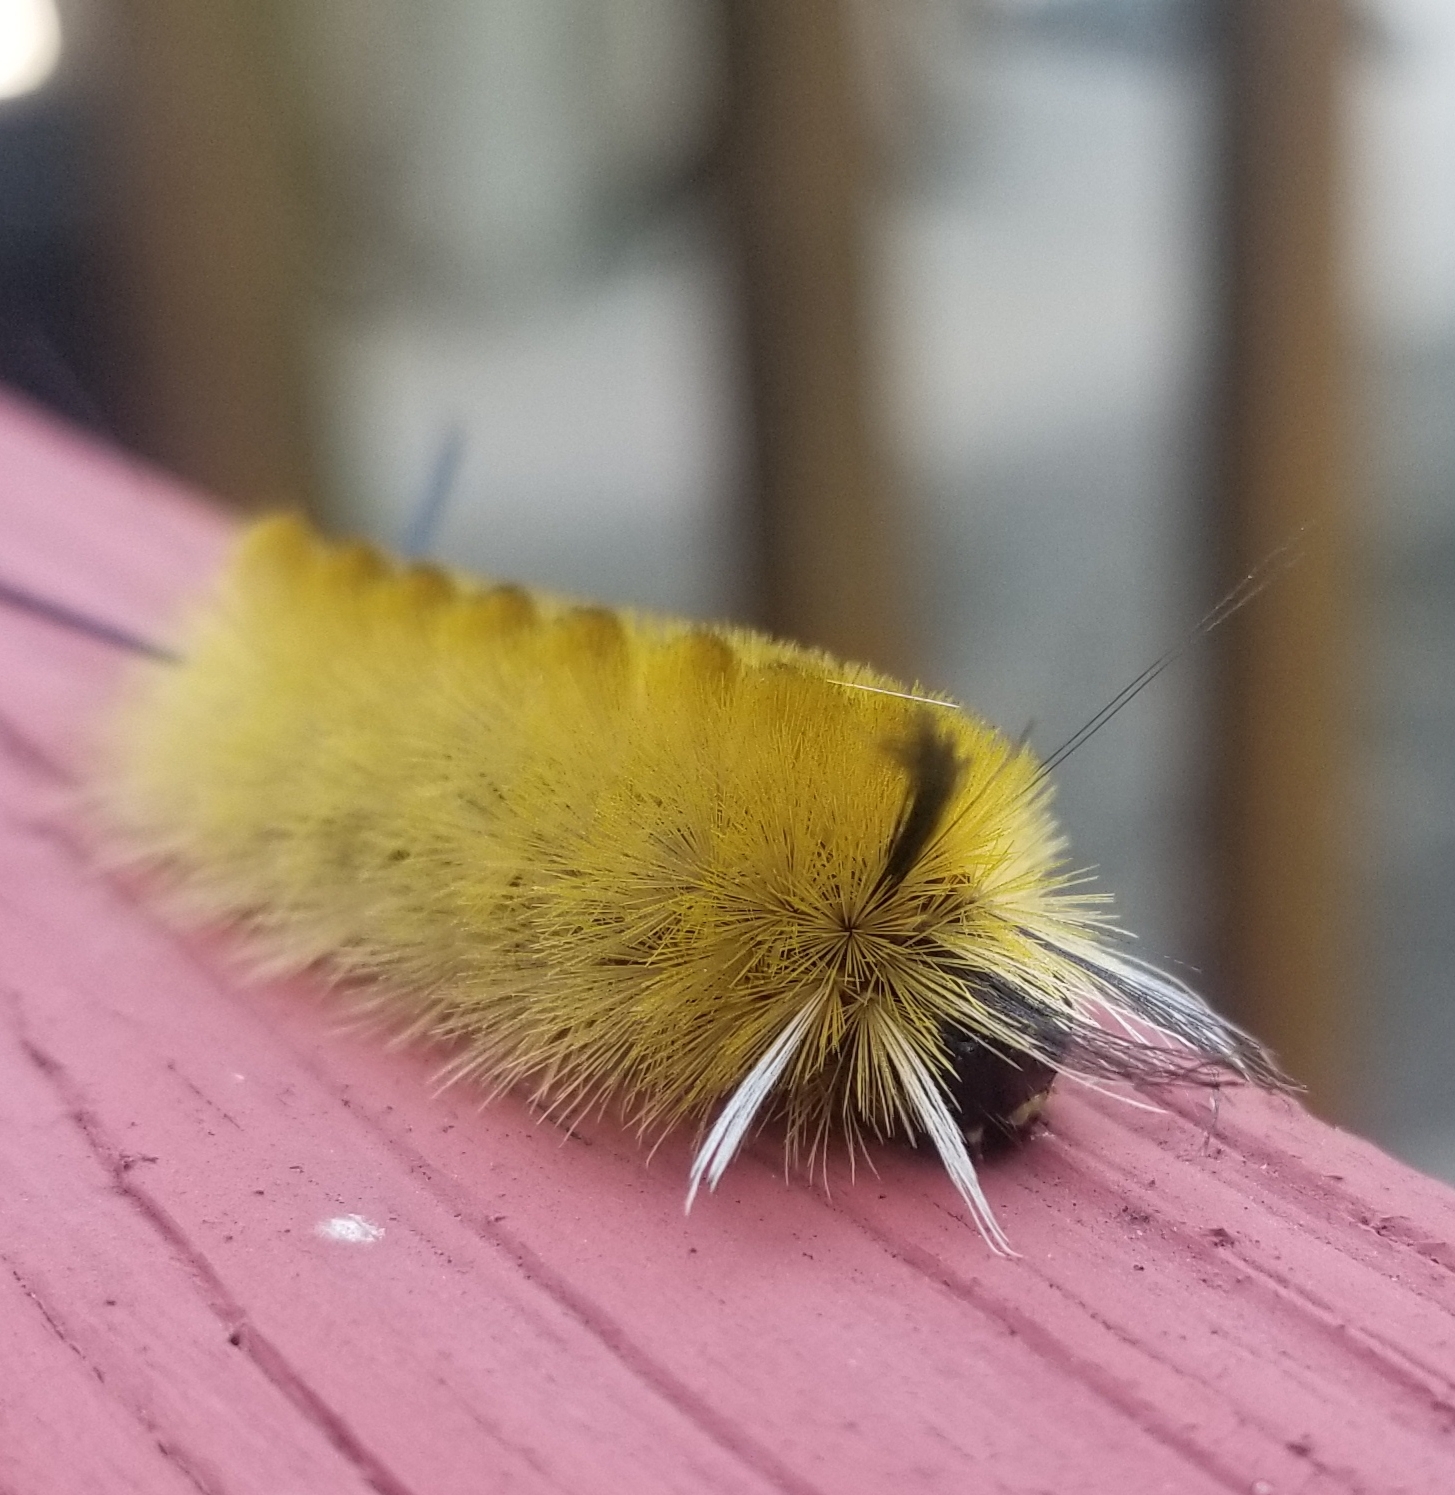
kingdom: Animalia
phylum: Arthropoda
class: Insecta
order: Lepidoptera
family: Erebidae
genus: Halysidota
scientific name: Halysidota tessellaris
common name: Banded tussock moth
